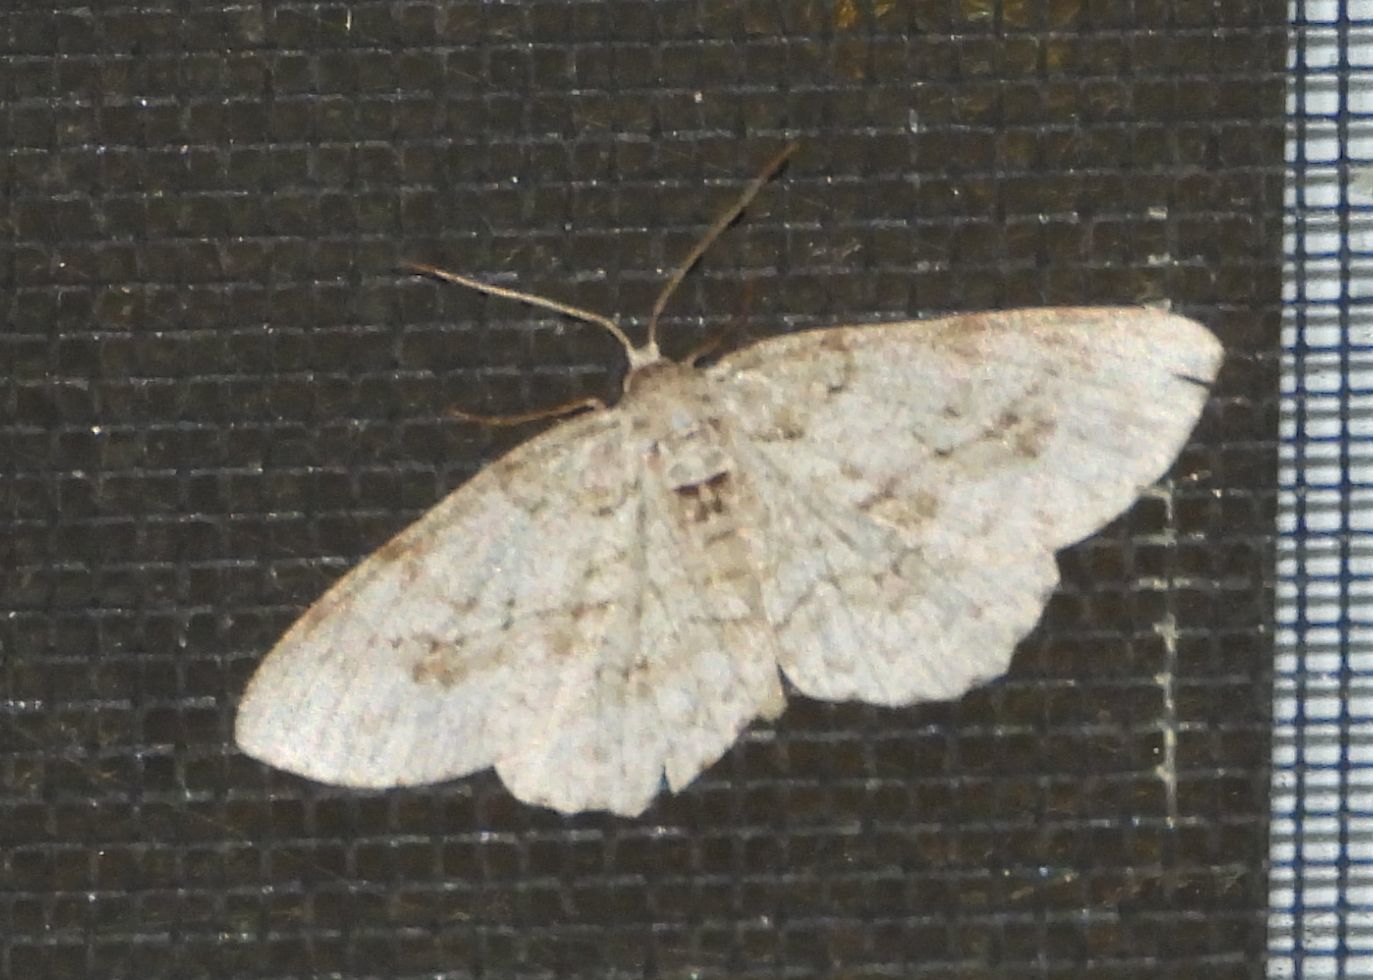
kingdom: Animalia
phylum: Arthropoda
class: Insecta
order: Lepidoptera
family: Geometridae
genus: Ectropis
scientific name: Ectropis crepuscularia
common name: Engrailed
